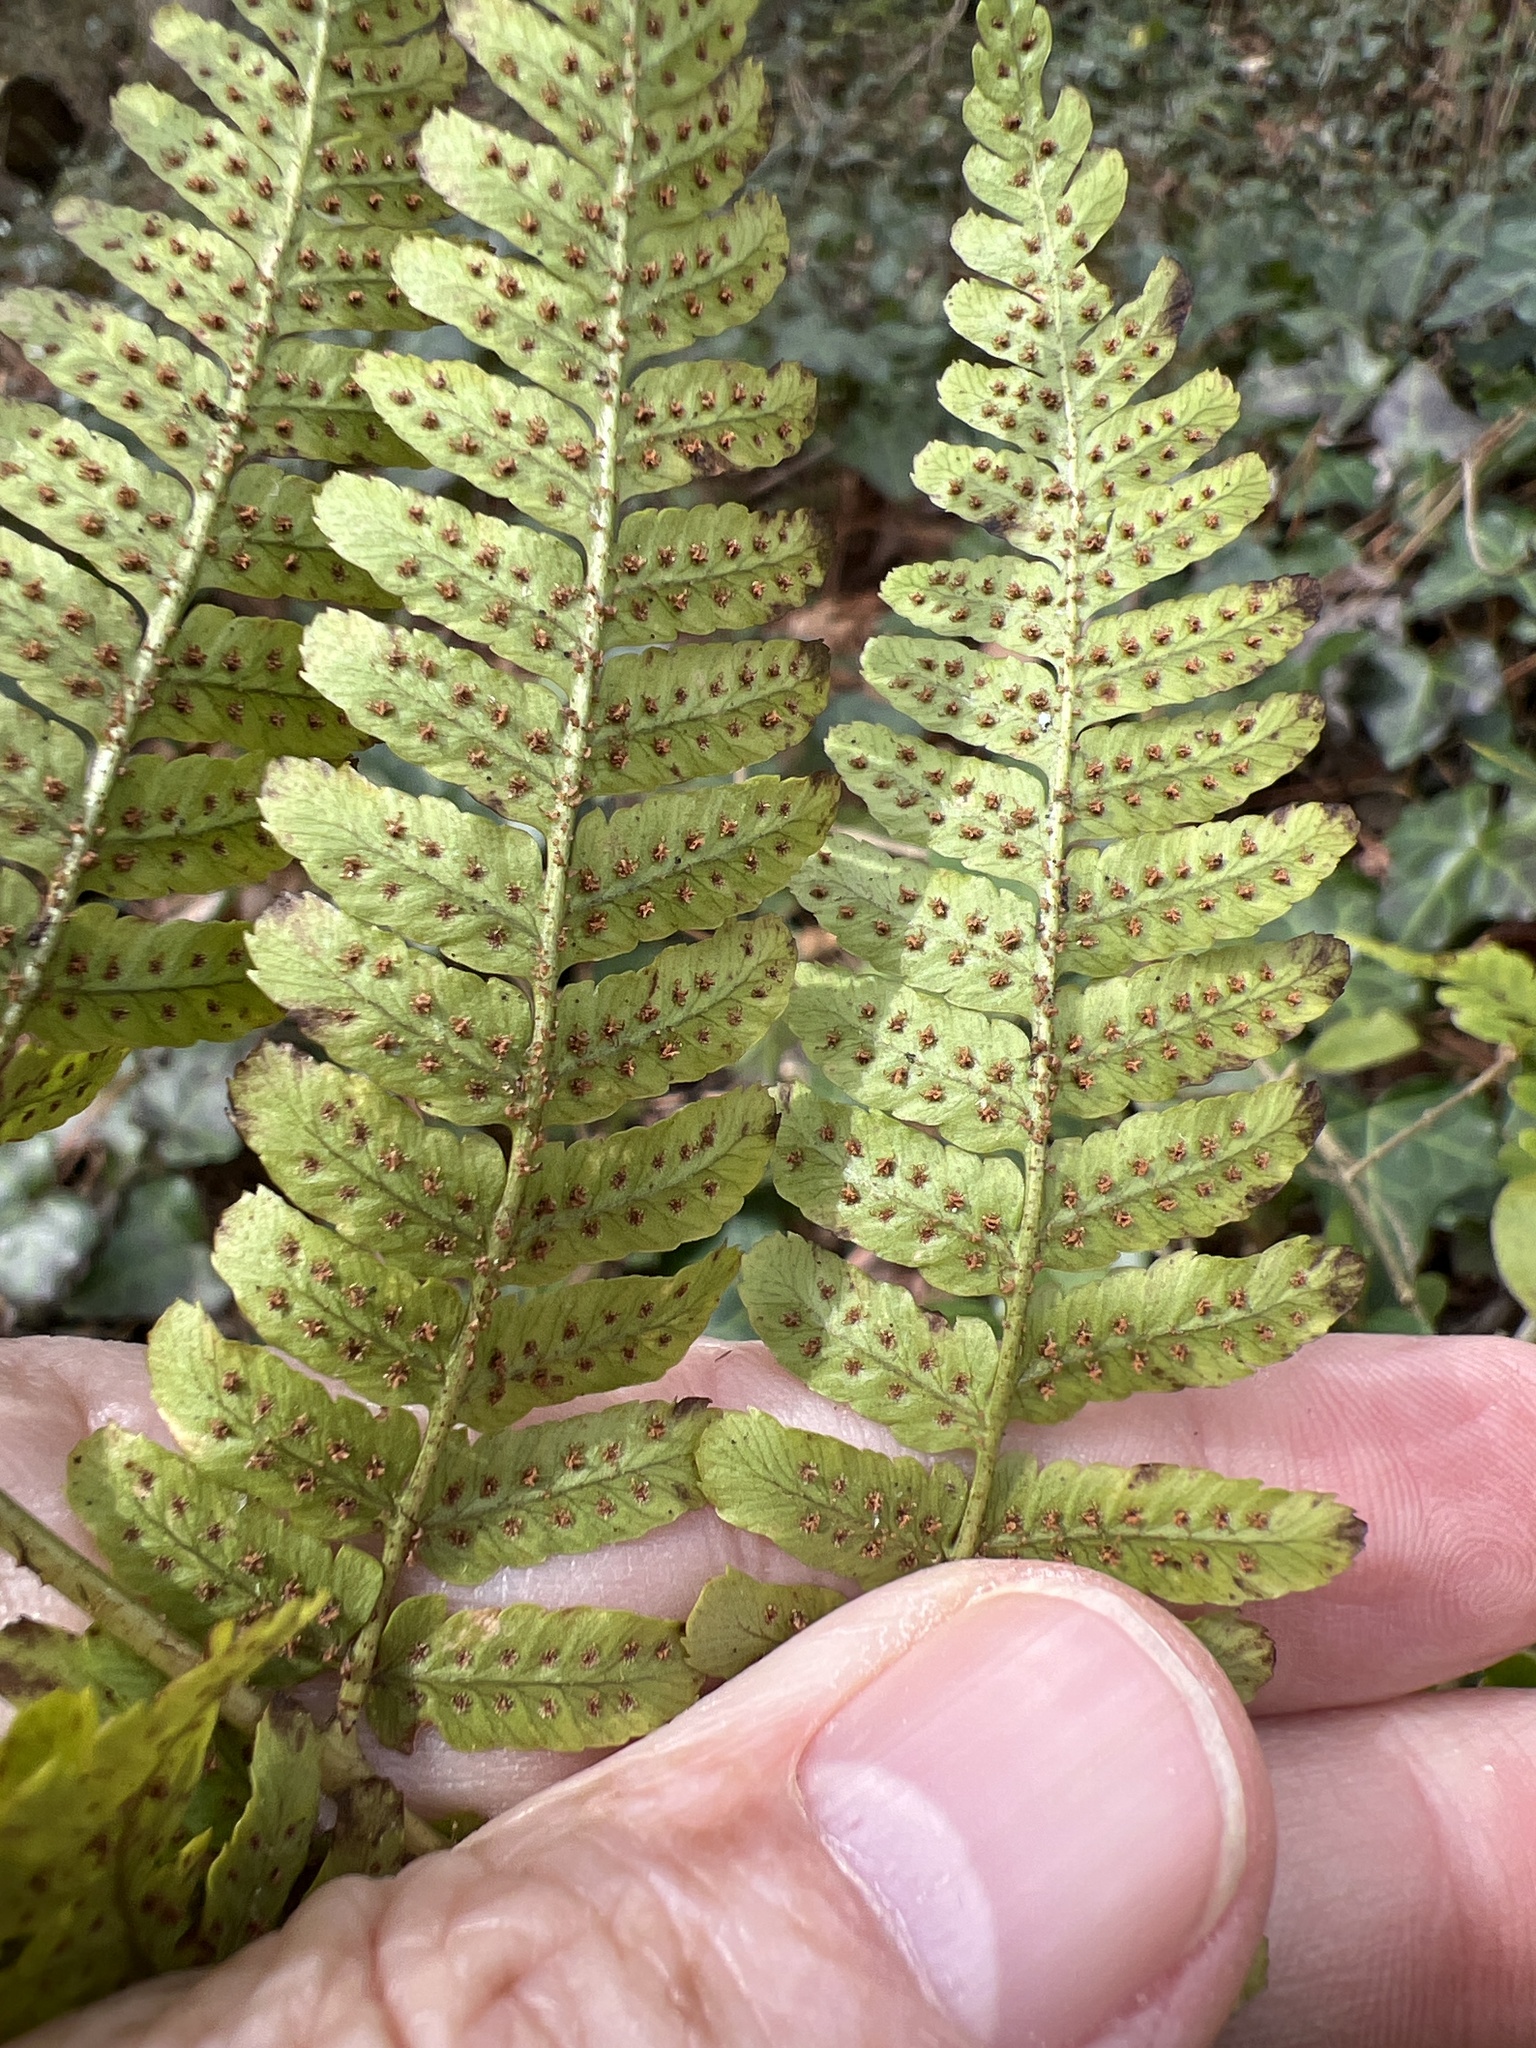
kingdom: Plantae
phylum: Tracheophyta
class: Polypodiopsida
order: Polypodiales
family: Dryopteridaceae
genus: Dryopteris
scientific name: Dryopteris erythrosora
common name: Autumn fern
